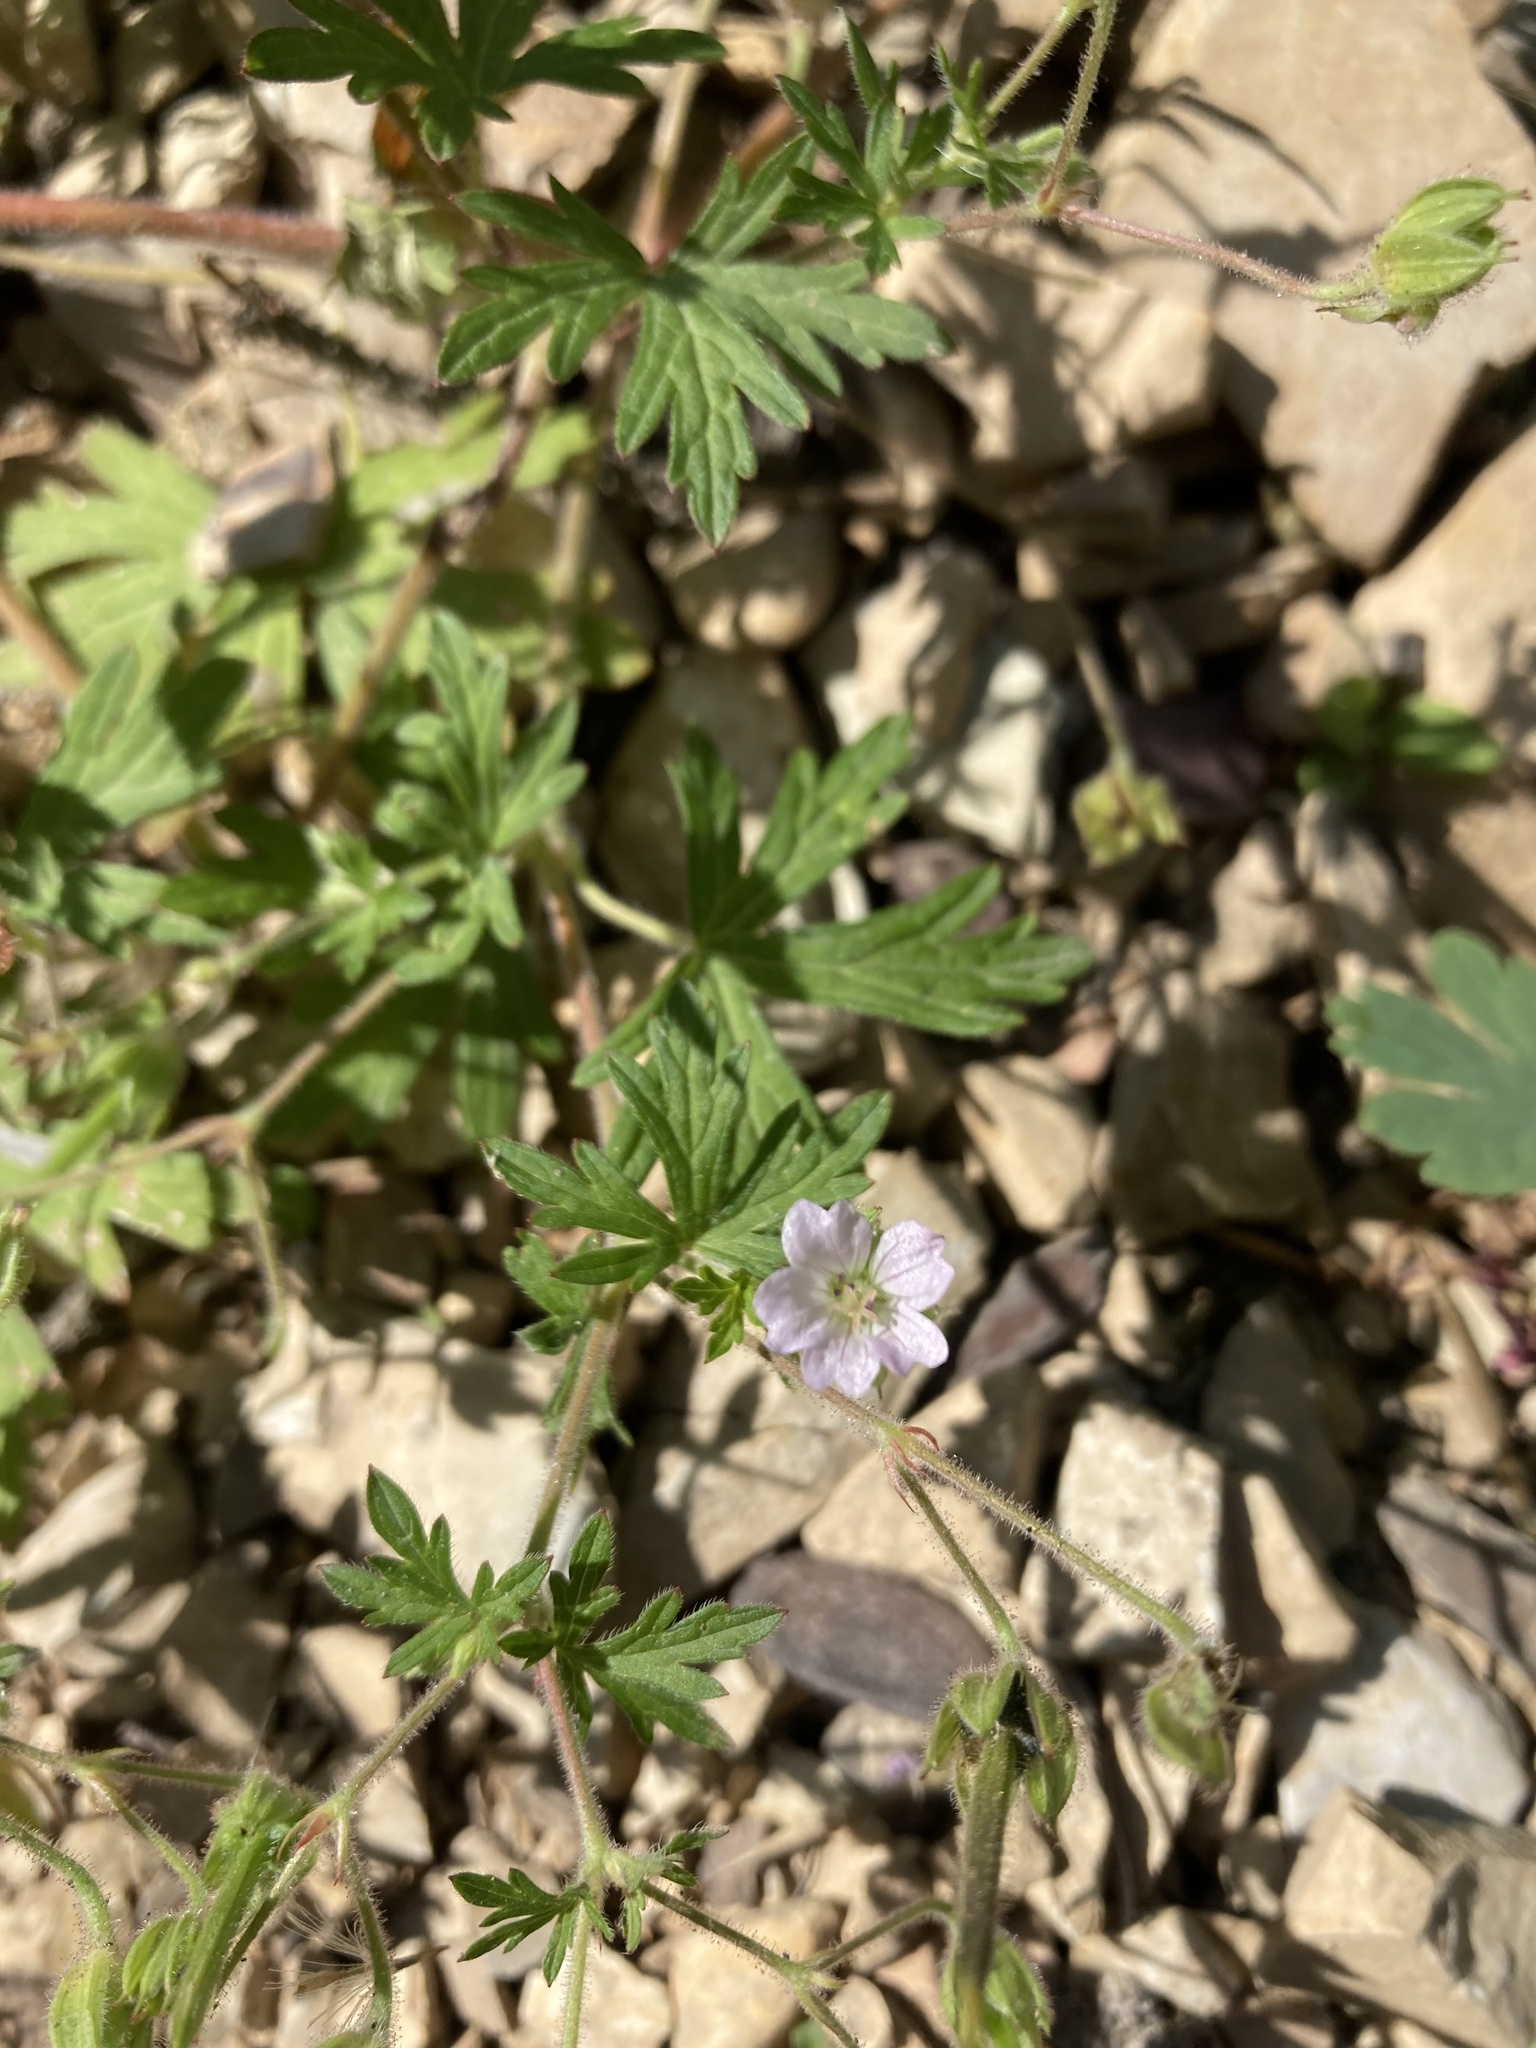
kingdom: Plantae
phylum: Tracheophyta
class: Magnoliopsida
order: Geraniales
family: Geraniaceae
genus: Geranium
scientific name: Geranium bicknellii
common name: Bicknell's cranesbill
